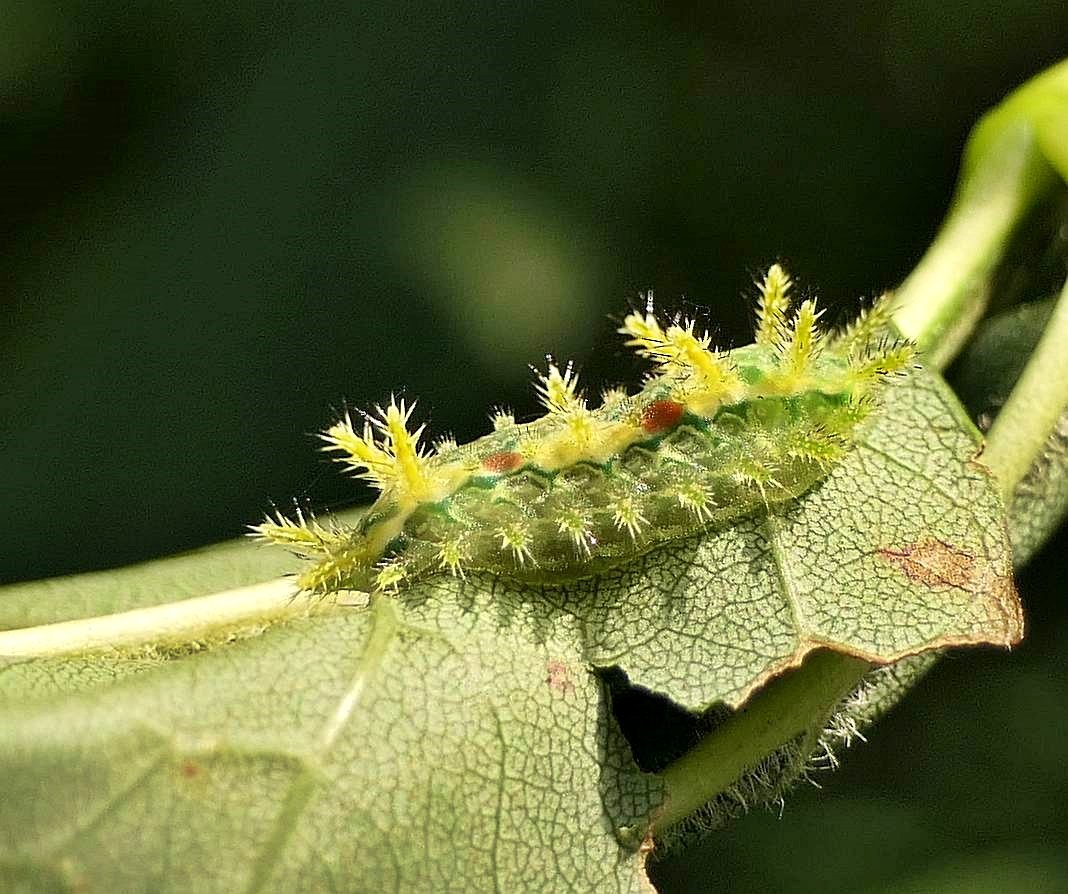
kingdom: Animalia
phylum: Arthropoda
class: Insecta
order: Lepidoptera
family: Limacodidae
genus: Euclea
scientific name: Euclea delphinii
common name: Spiny oak-slug moth
